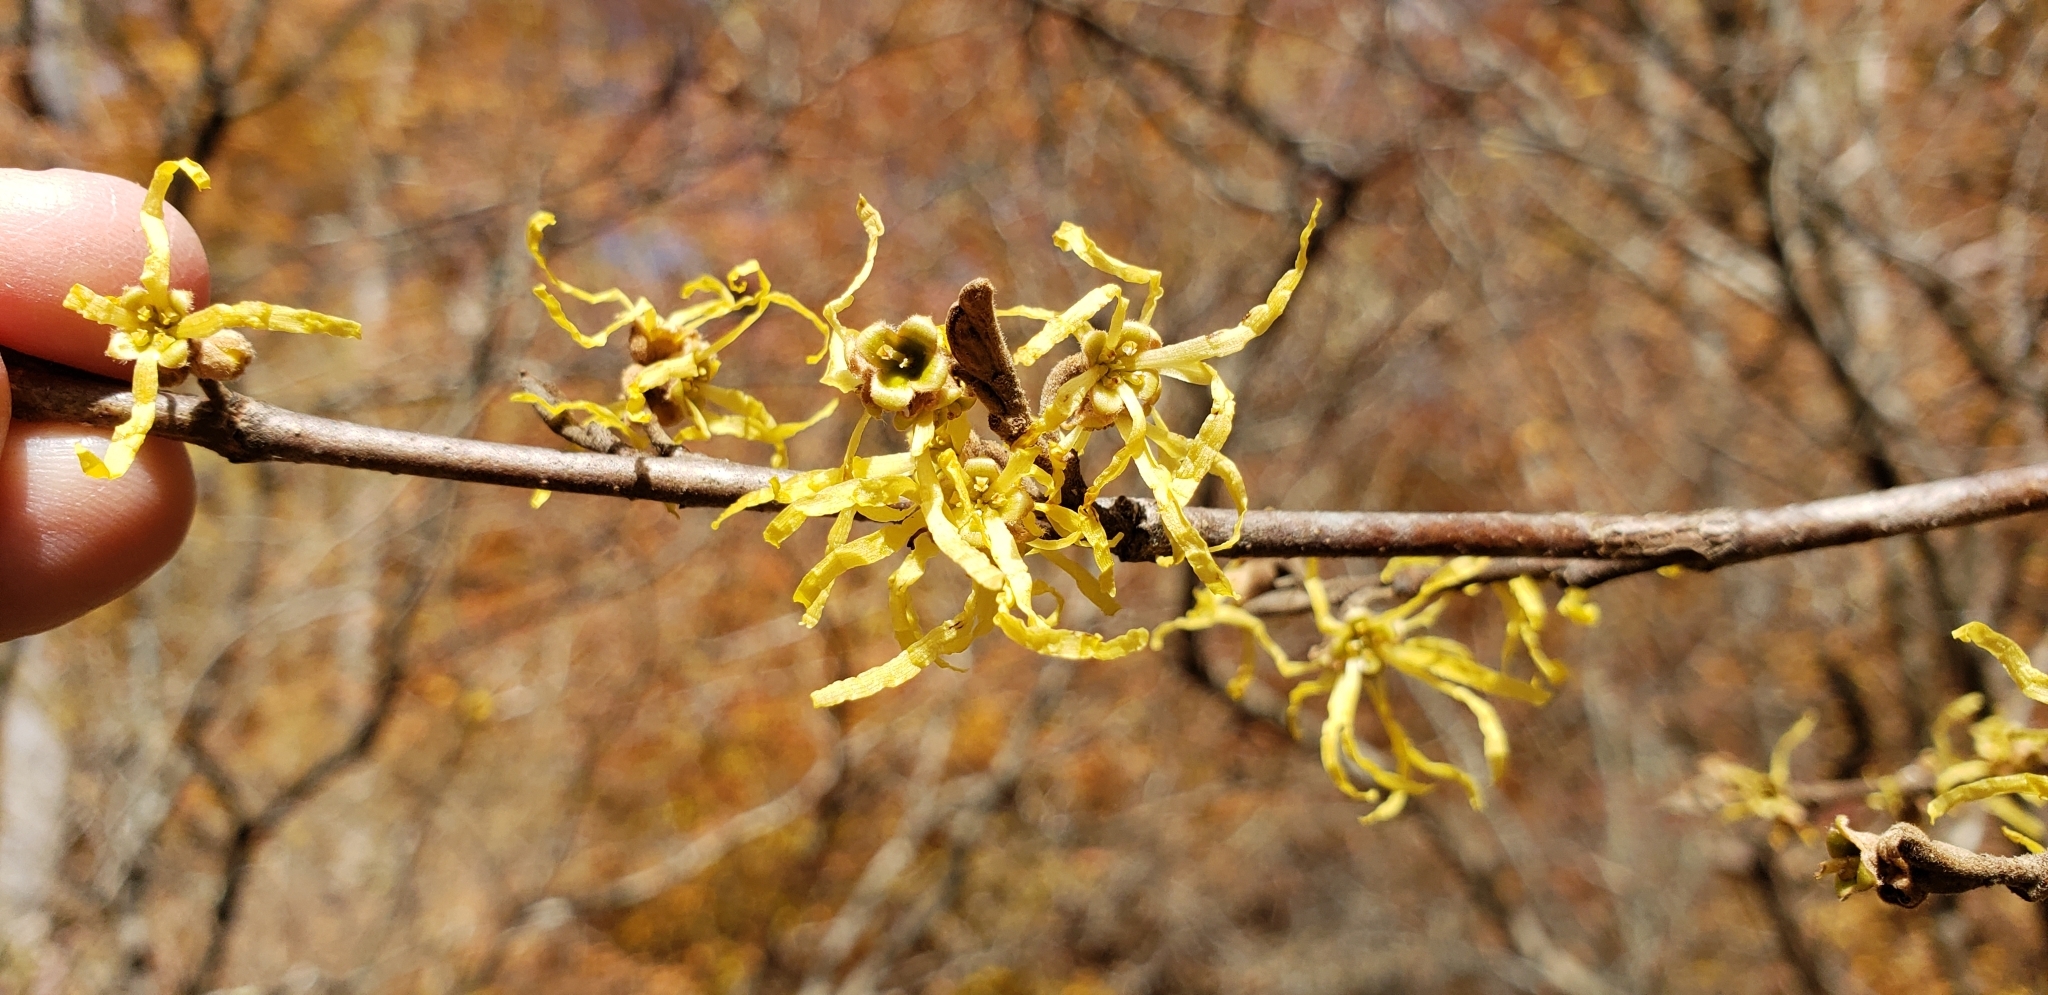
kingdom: Plantae
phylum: Tracheophyta
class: Magnoliopsida
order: Saxifragales
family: Hamamelidaceae
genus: Hamamelis
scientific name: Hamamelis virginiana
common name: Witch-hazel
